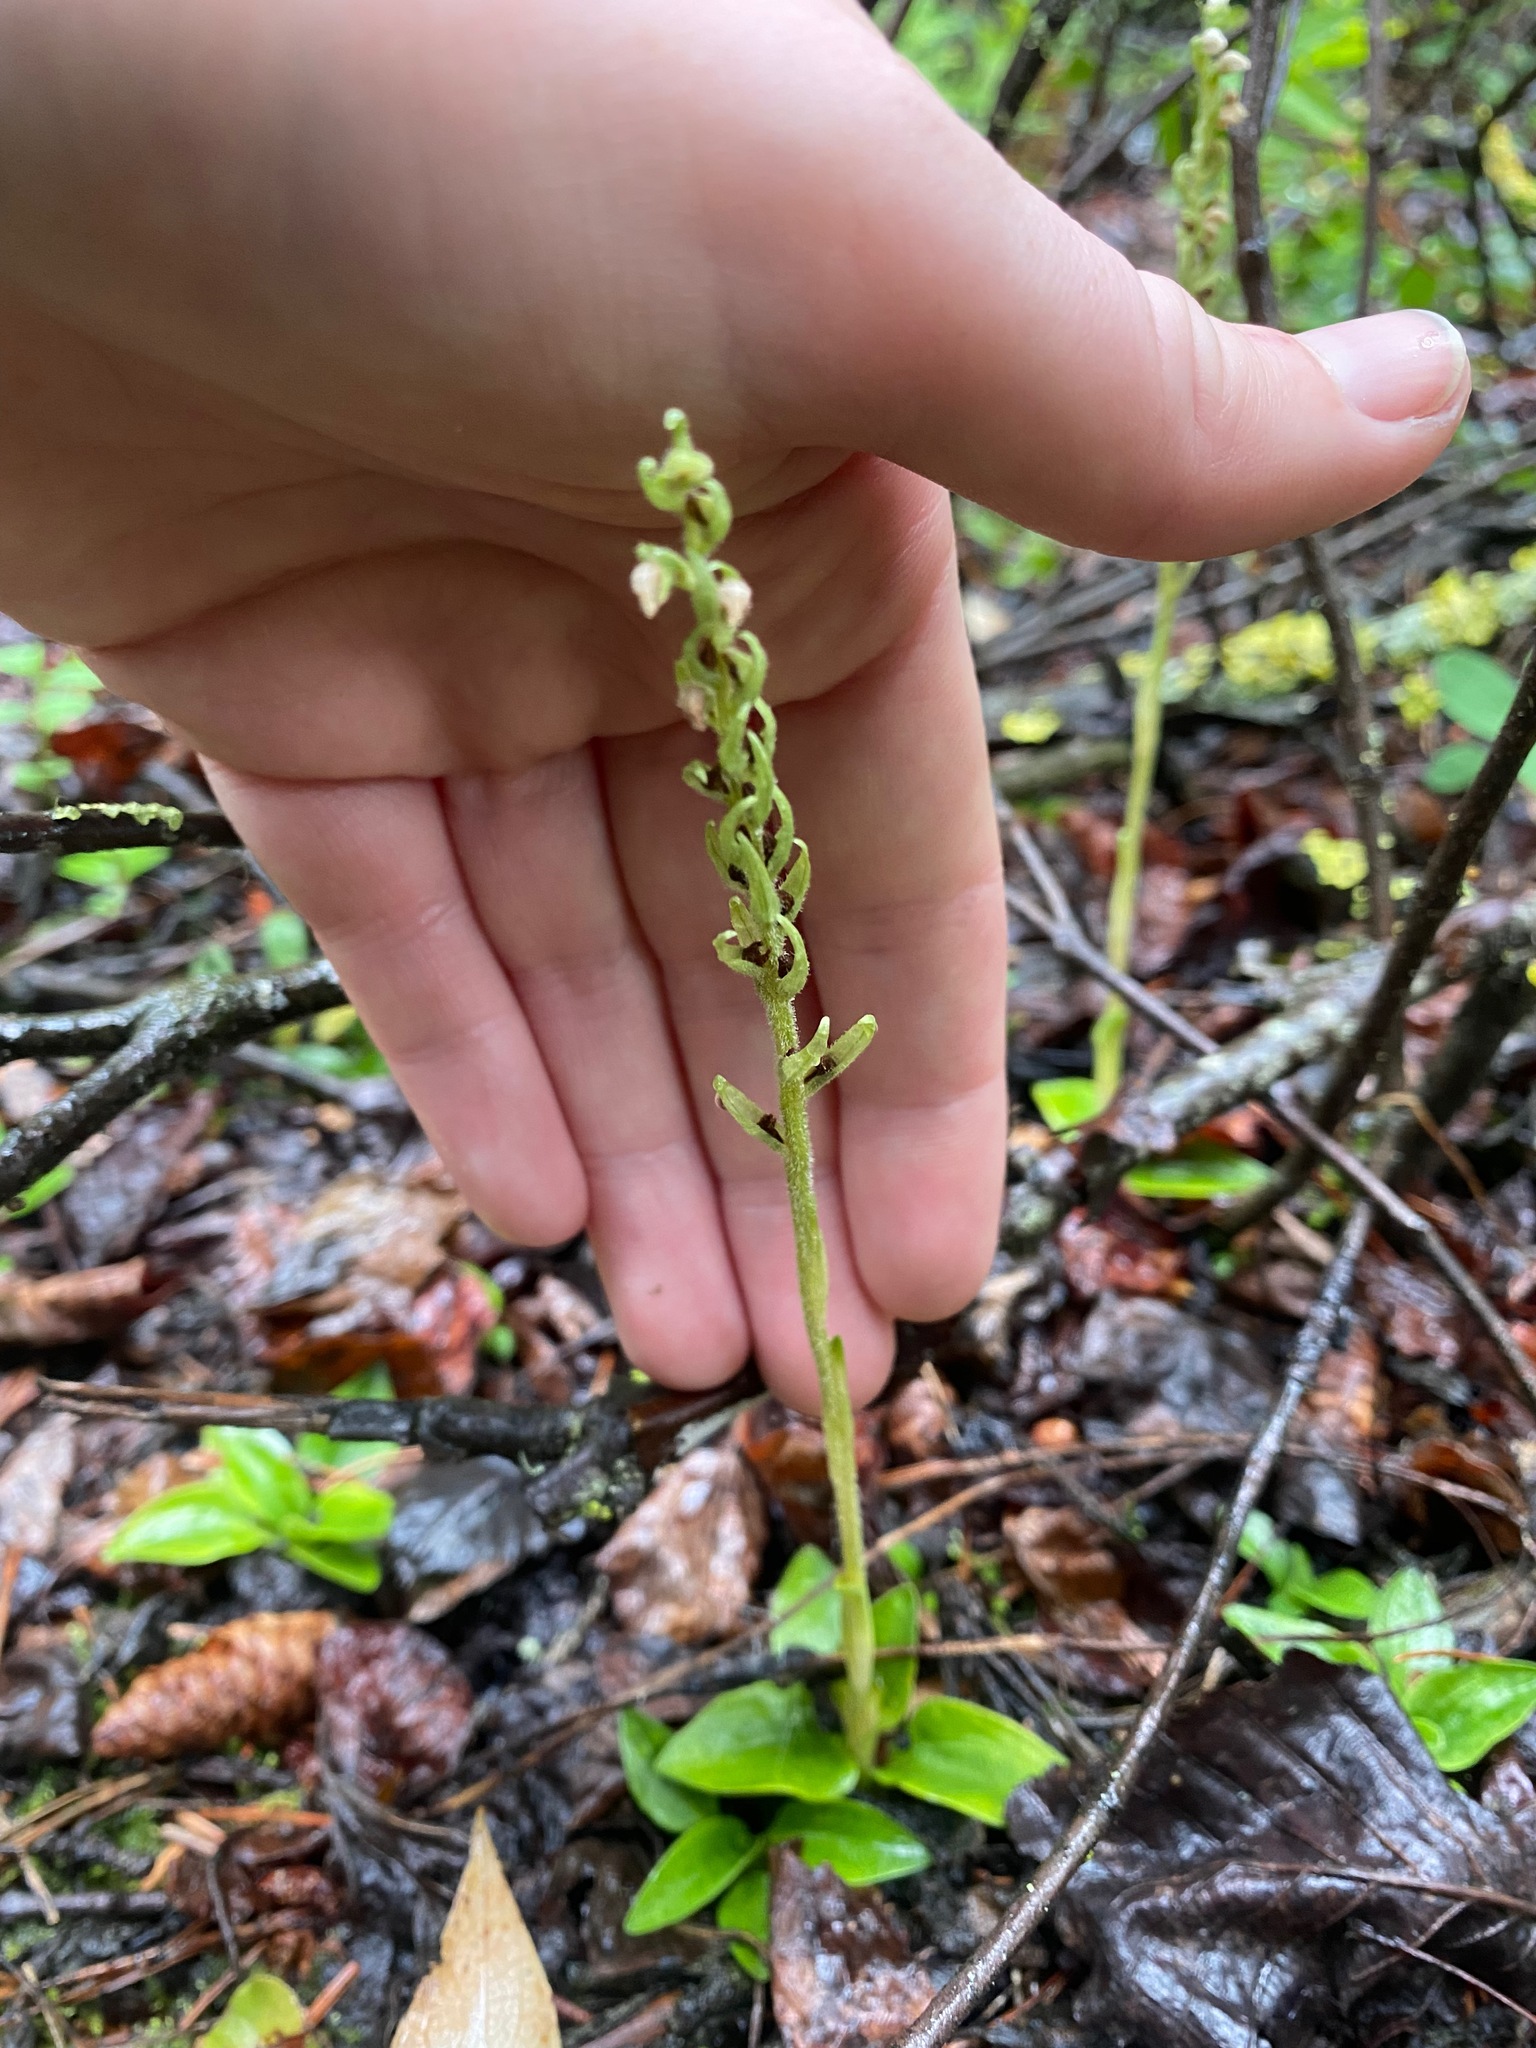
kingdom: Plantae
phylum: Tracheophyta
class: Liliopsida
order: Asparagales
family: Orchidaceae
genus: Goodyera
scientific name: Goodyera repens
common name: Creeping lady's-tresses
